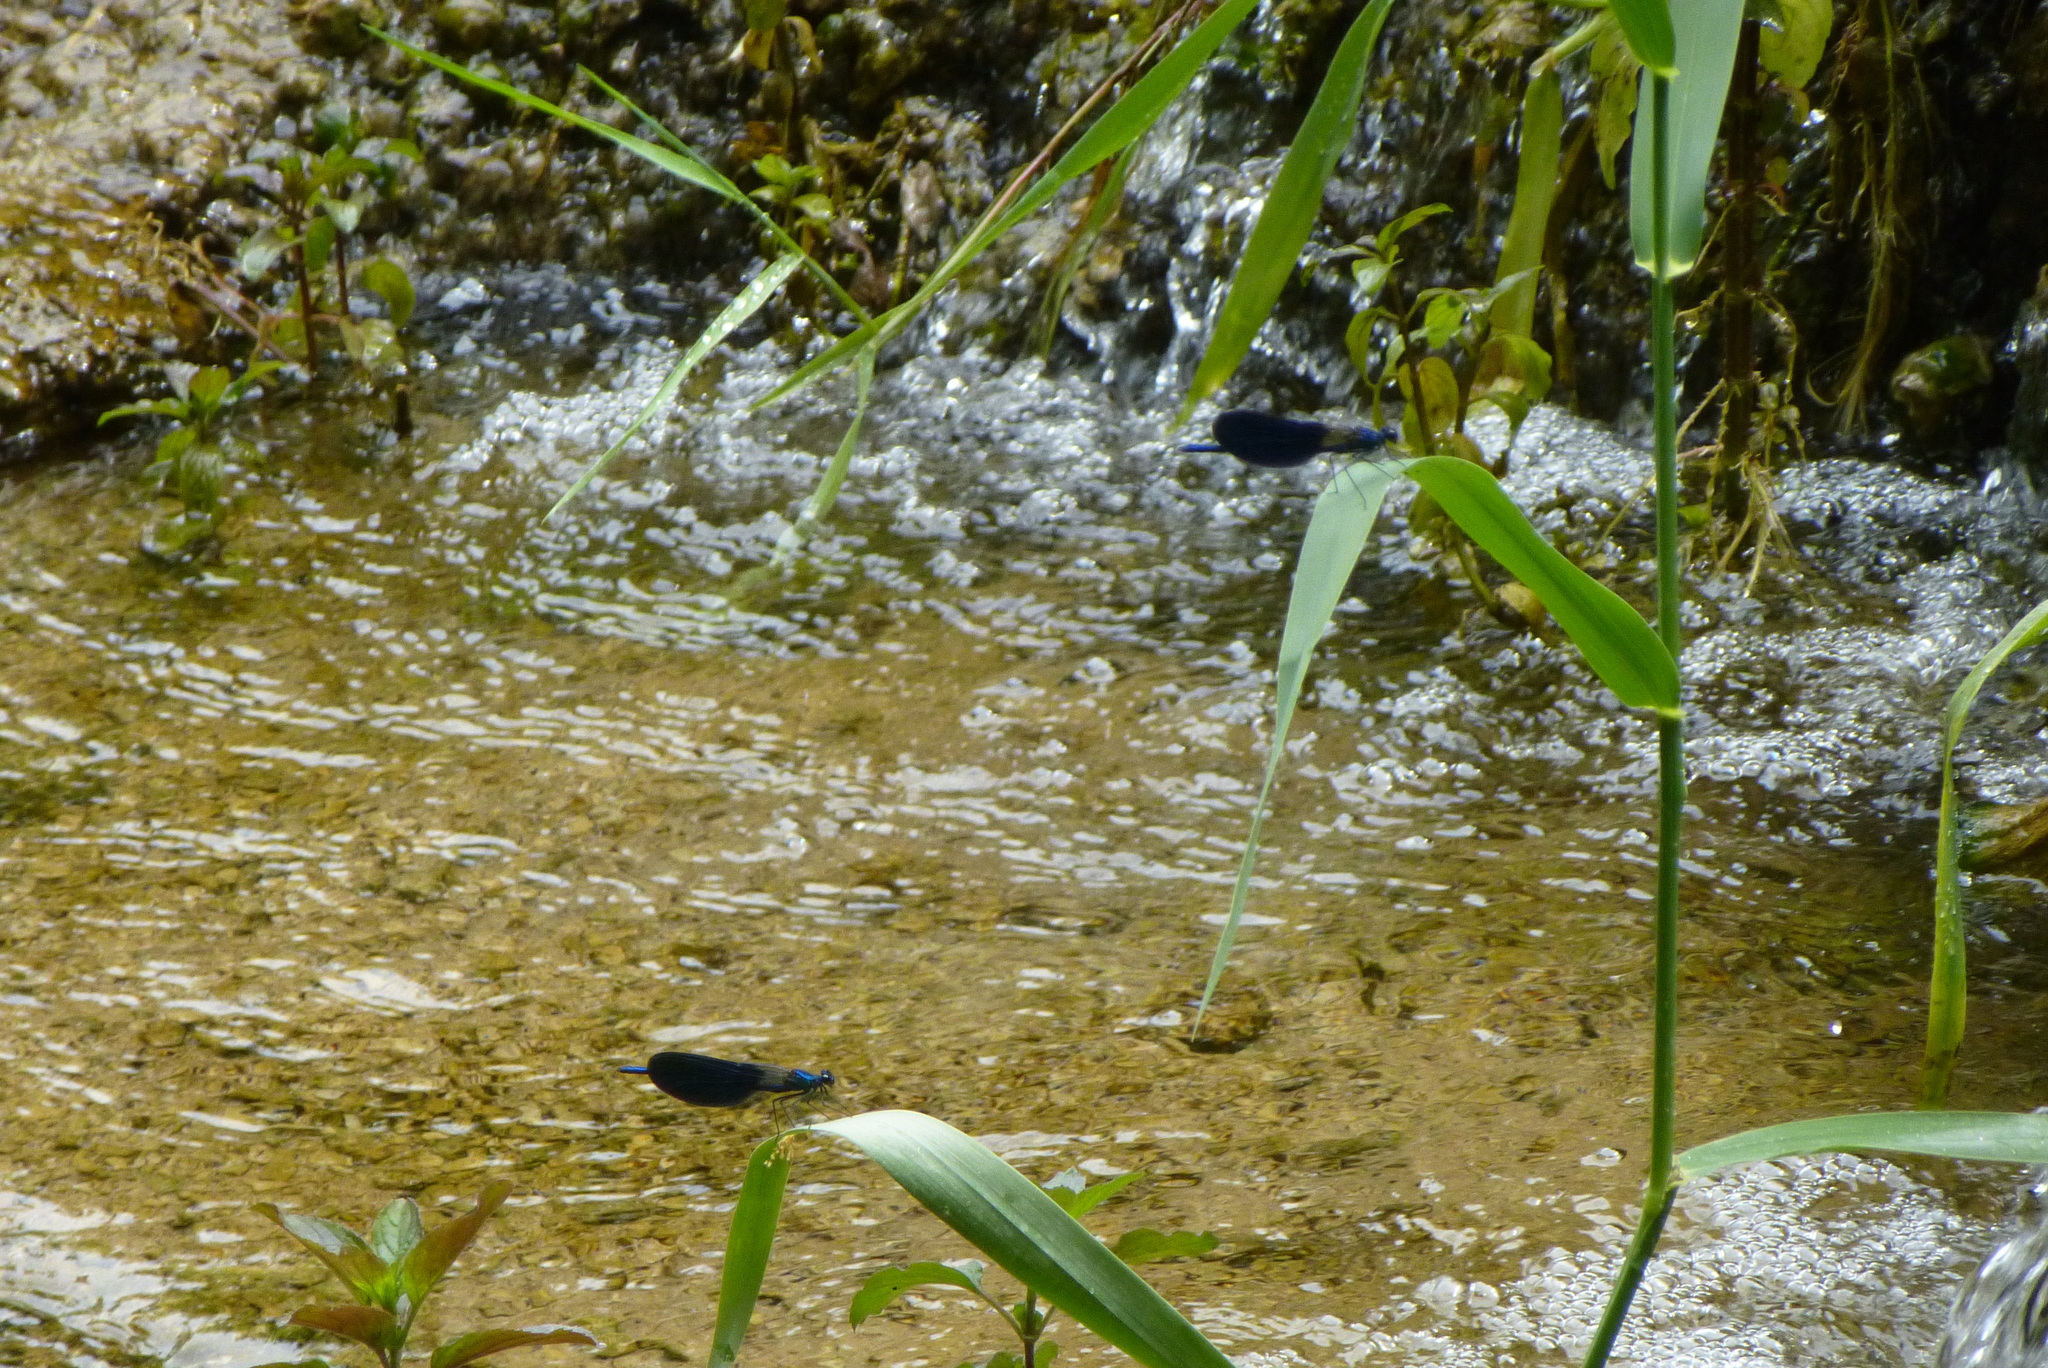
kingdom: Animalia
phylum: Arthropoda
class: Insecta
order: Odonata
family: Calopterygidae
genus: Calopteryx
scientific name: Calopteryx splendens
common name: Banded demoiselle
